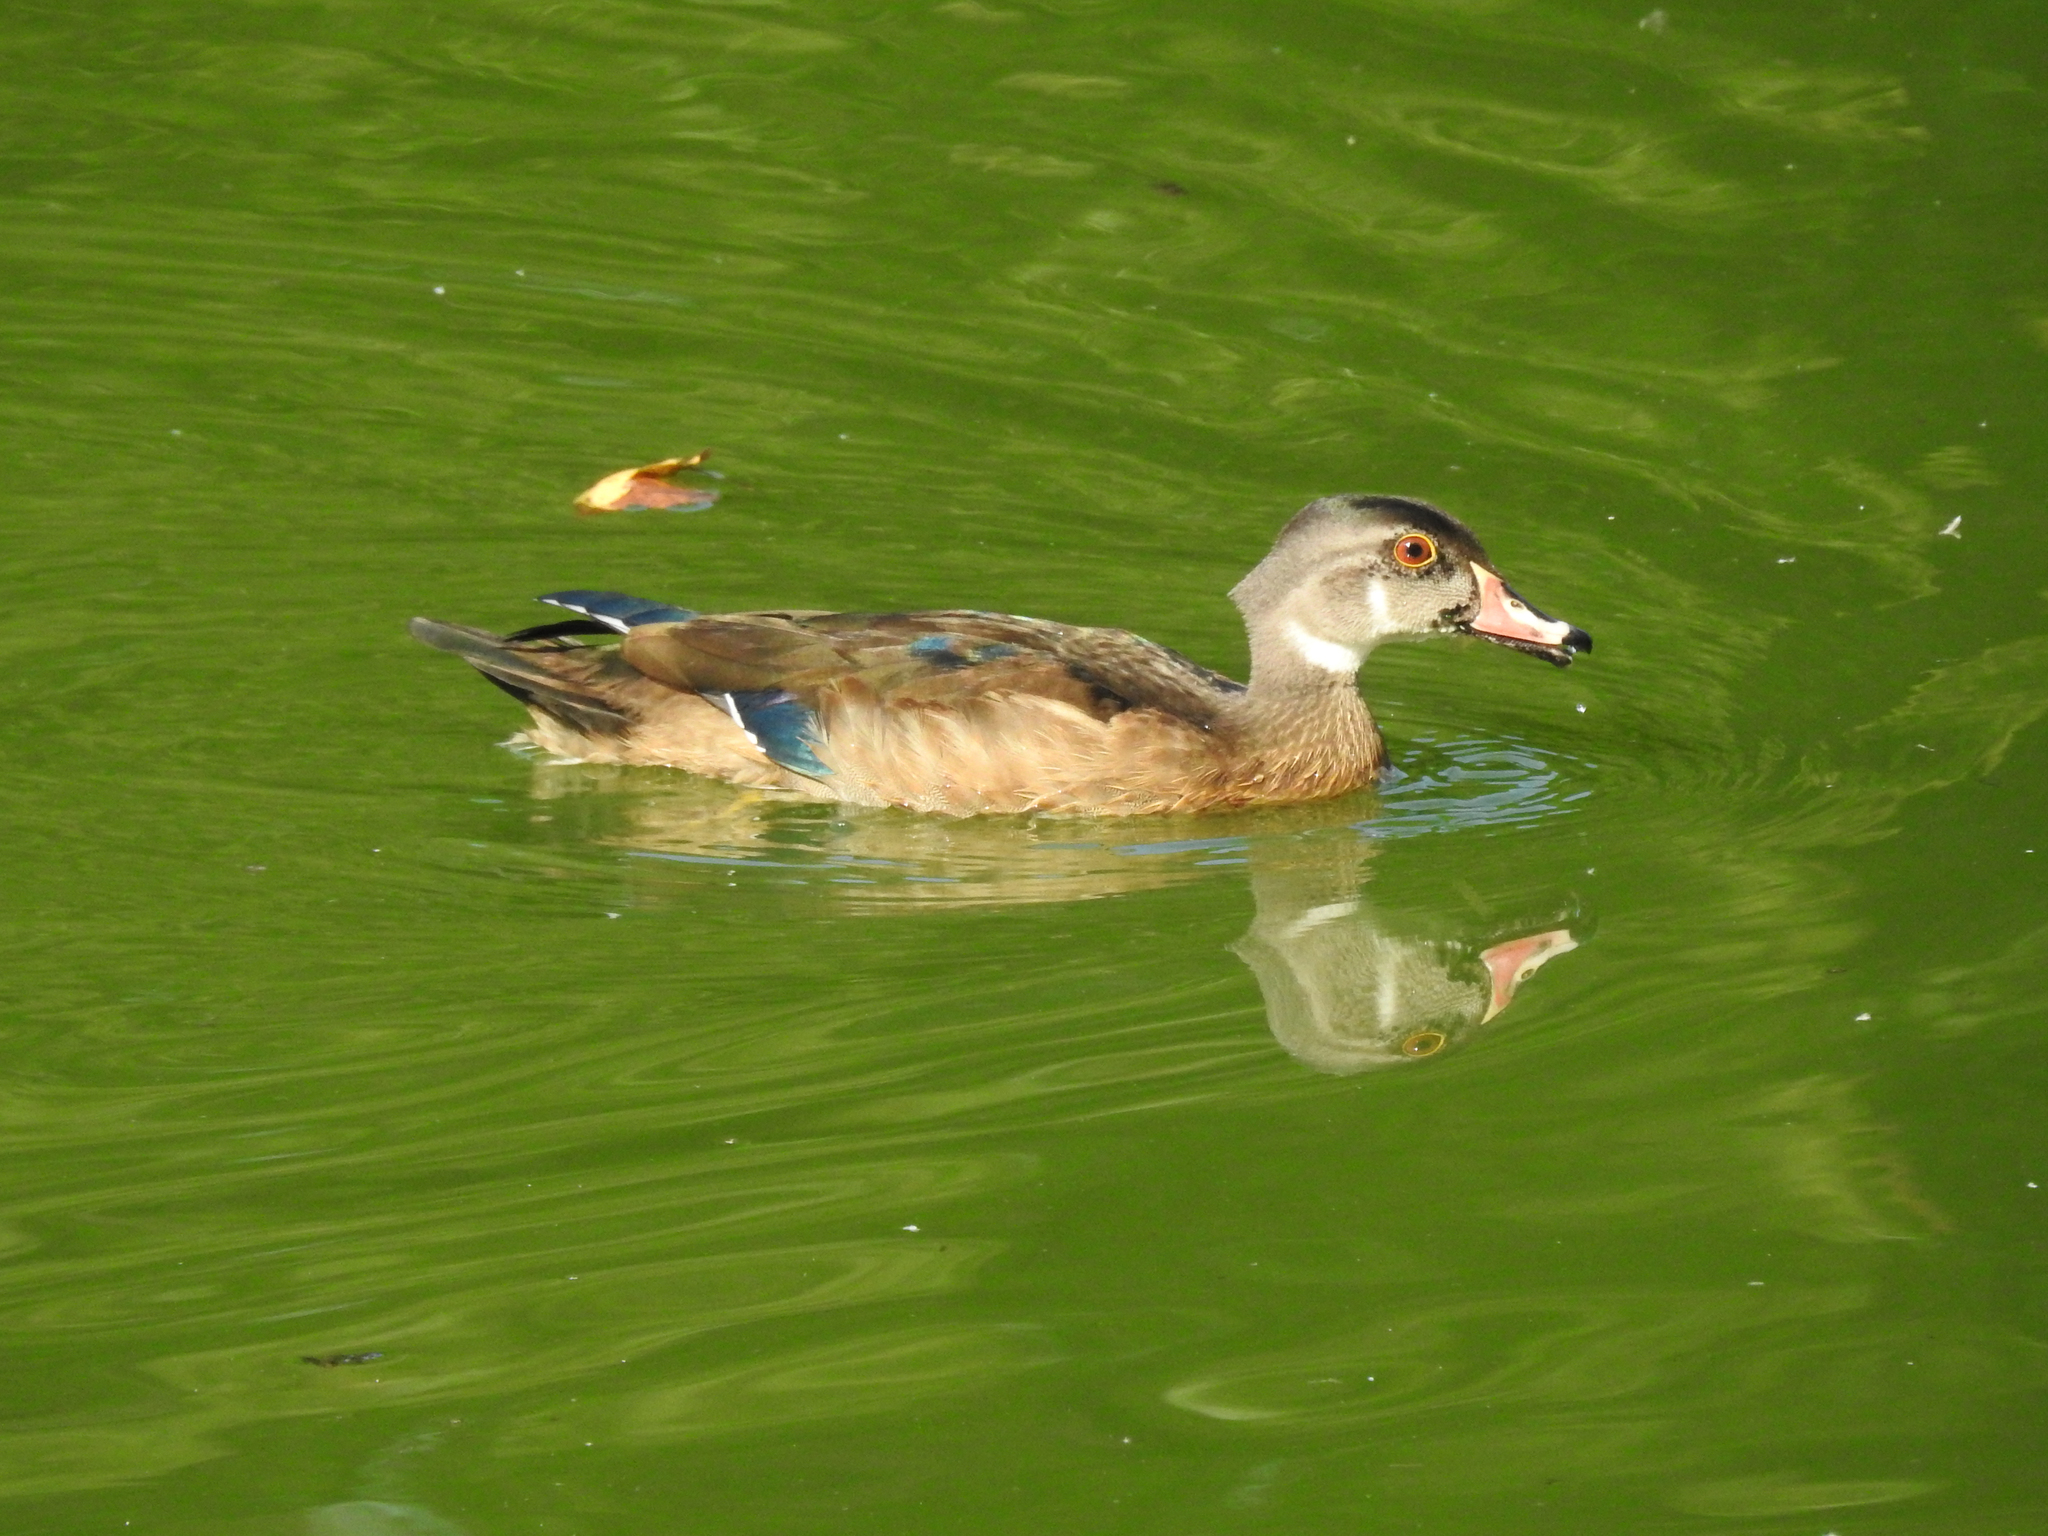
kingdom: Animalia
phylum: Chordata
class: Aves
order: Anseriformes
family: Anatidae
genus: Aix
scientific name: Aix sponsa
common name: Wood duck
